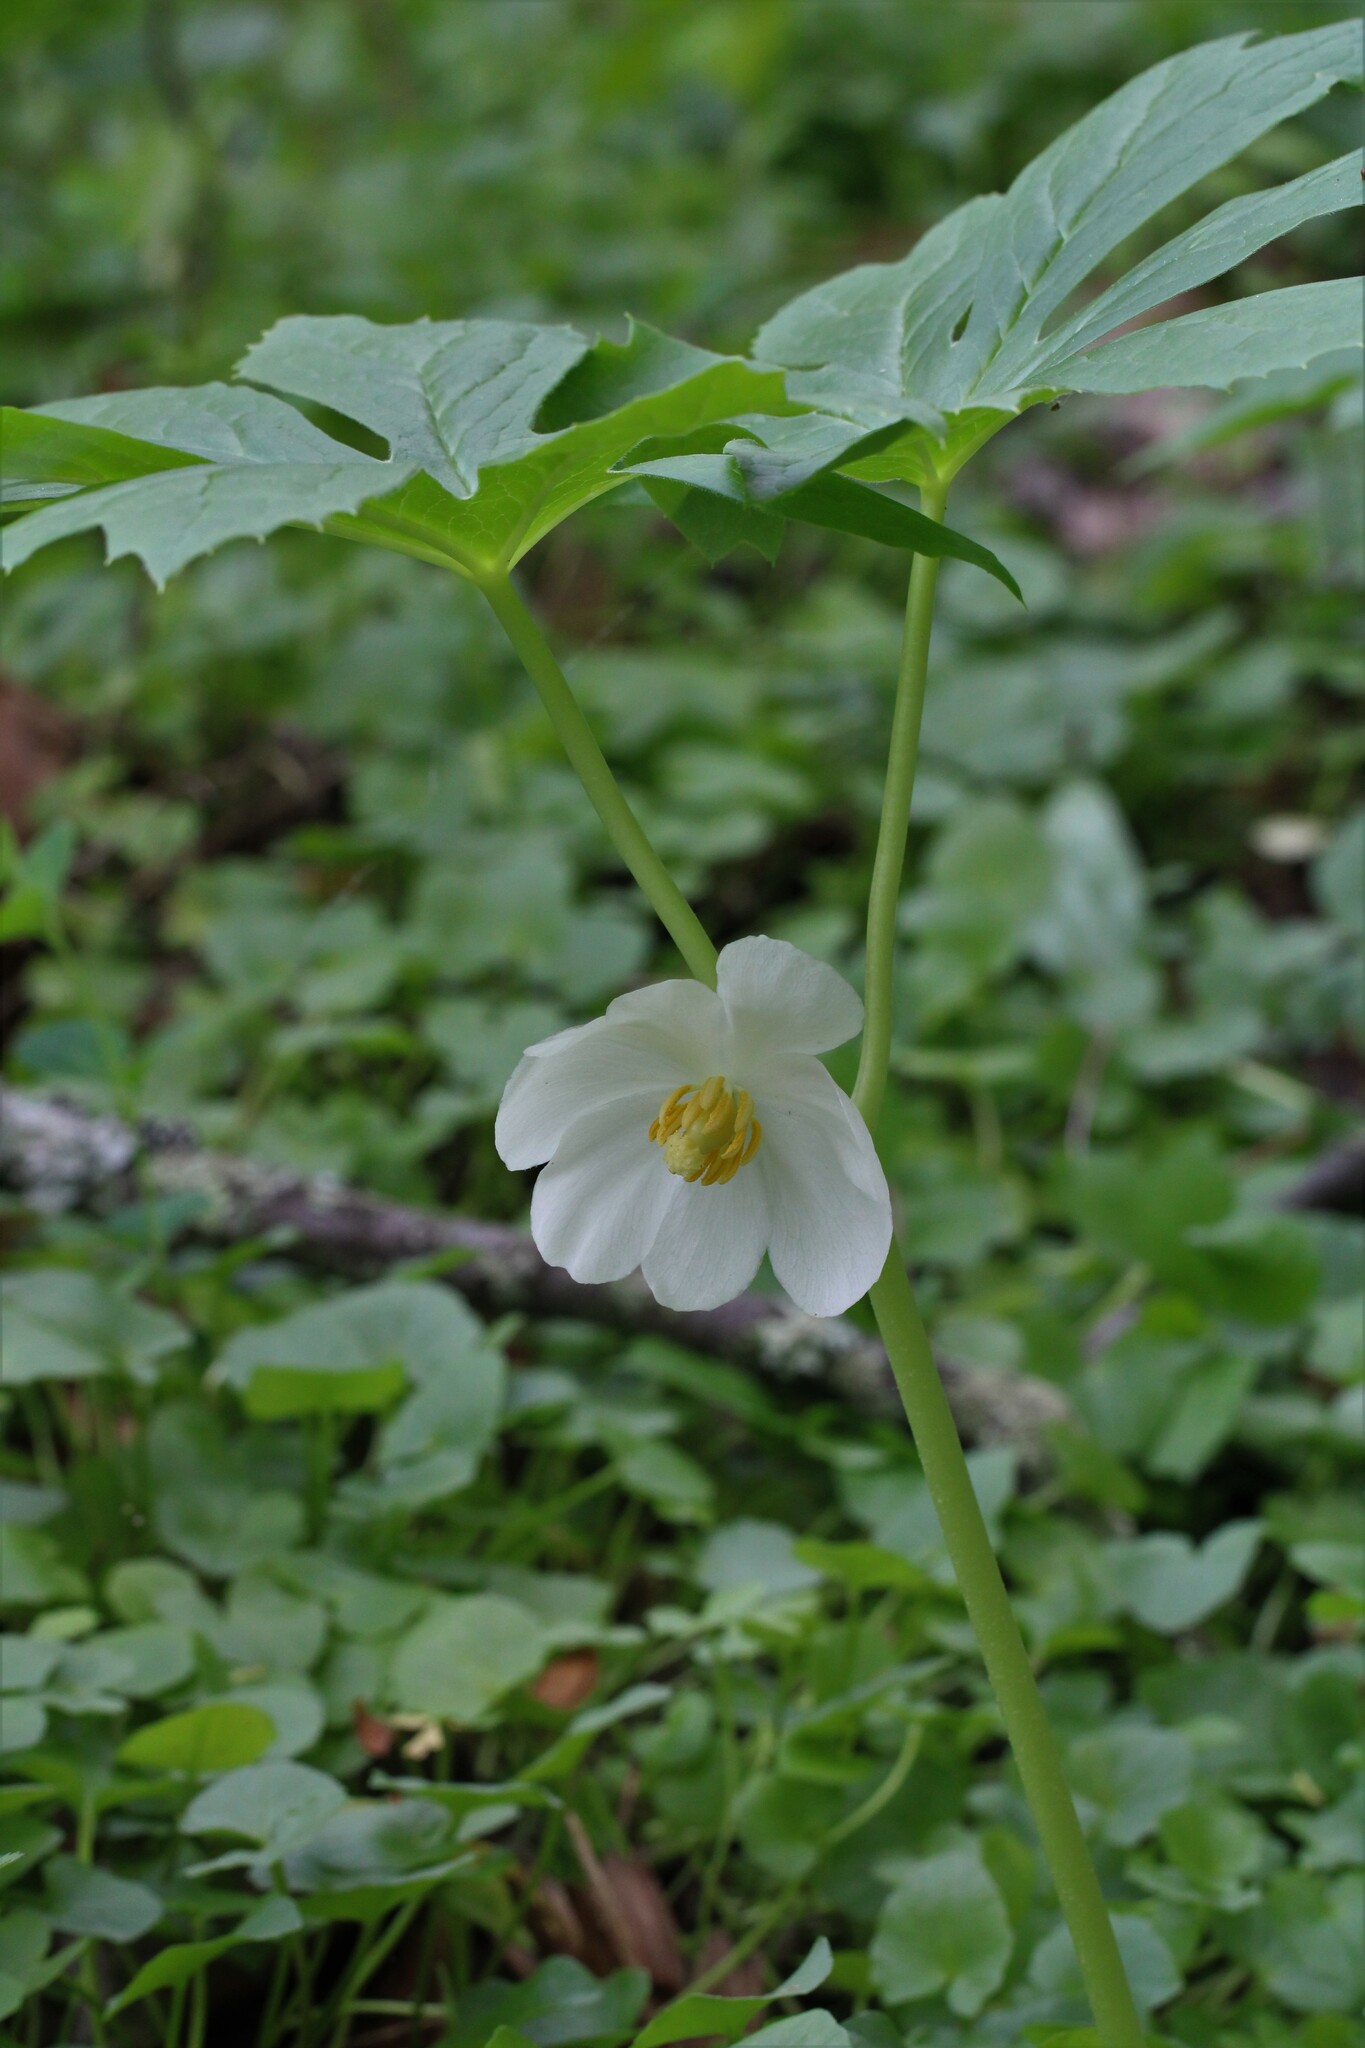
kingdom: Plantae
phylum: Tracheophyta
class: Magnoliopsida
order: Ranunculales
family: Berberidaceae
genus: Podophyllum
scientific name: Podophyllum peltatum
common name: Wild mandrake
